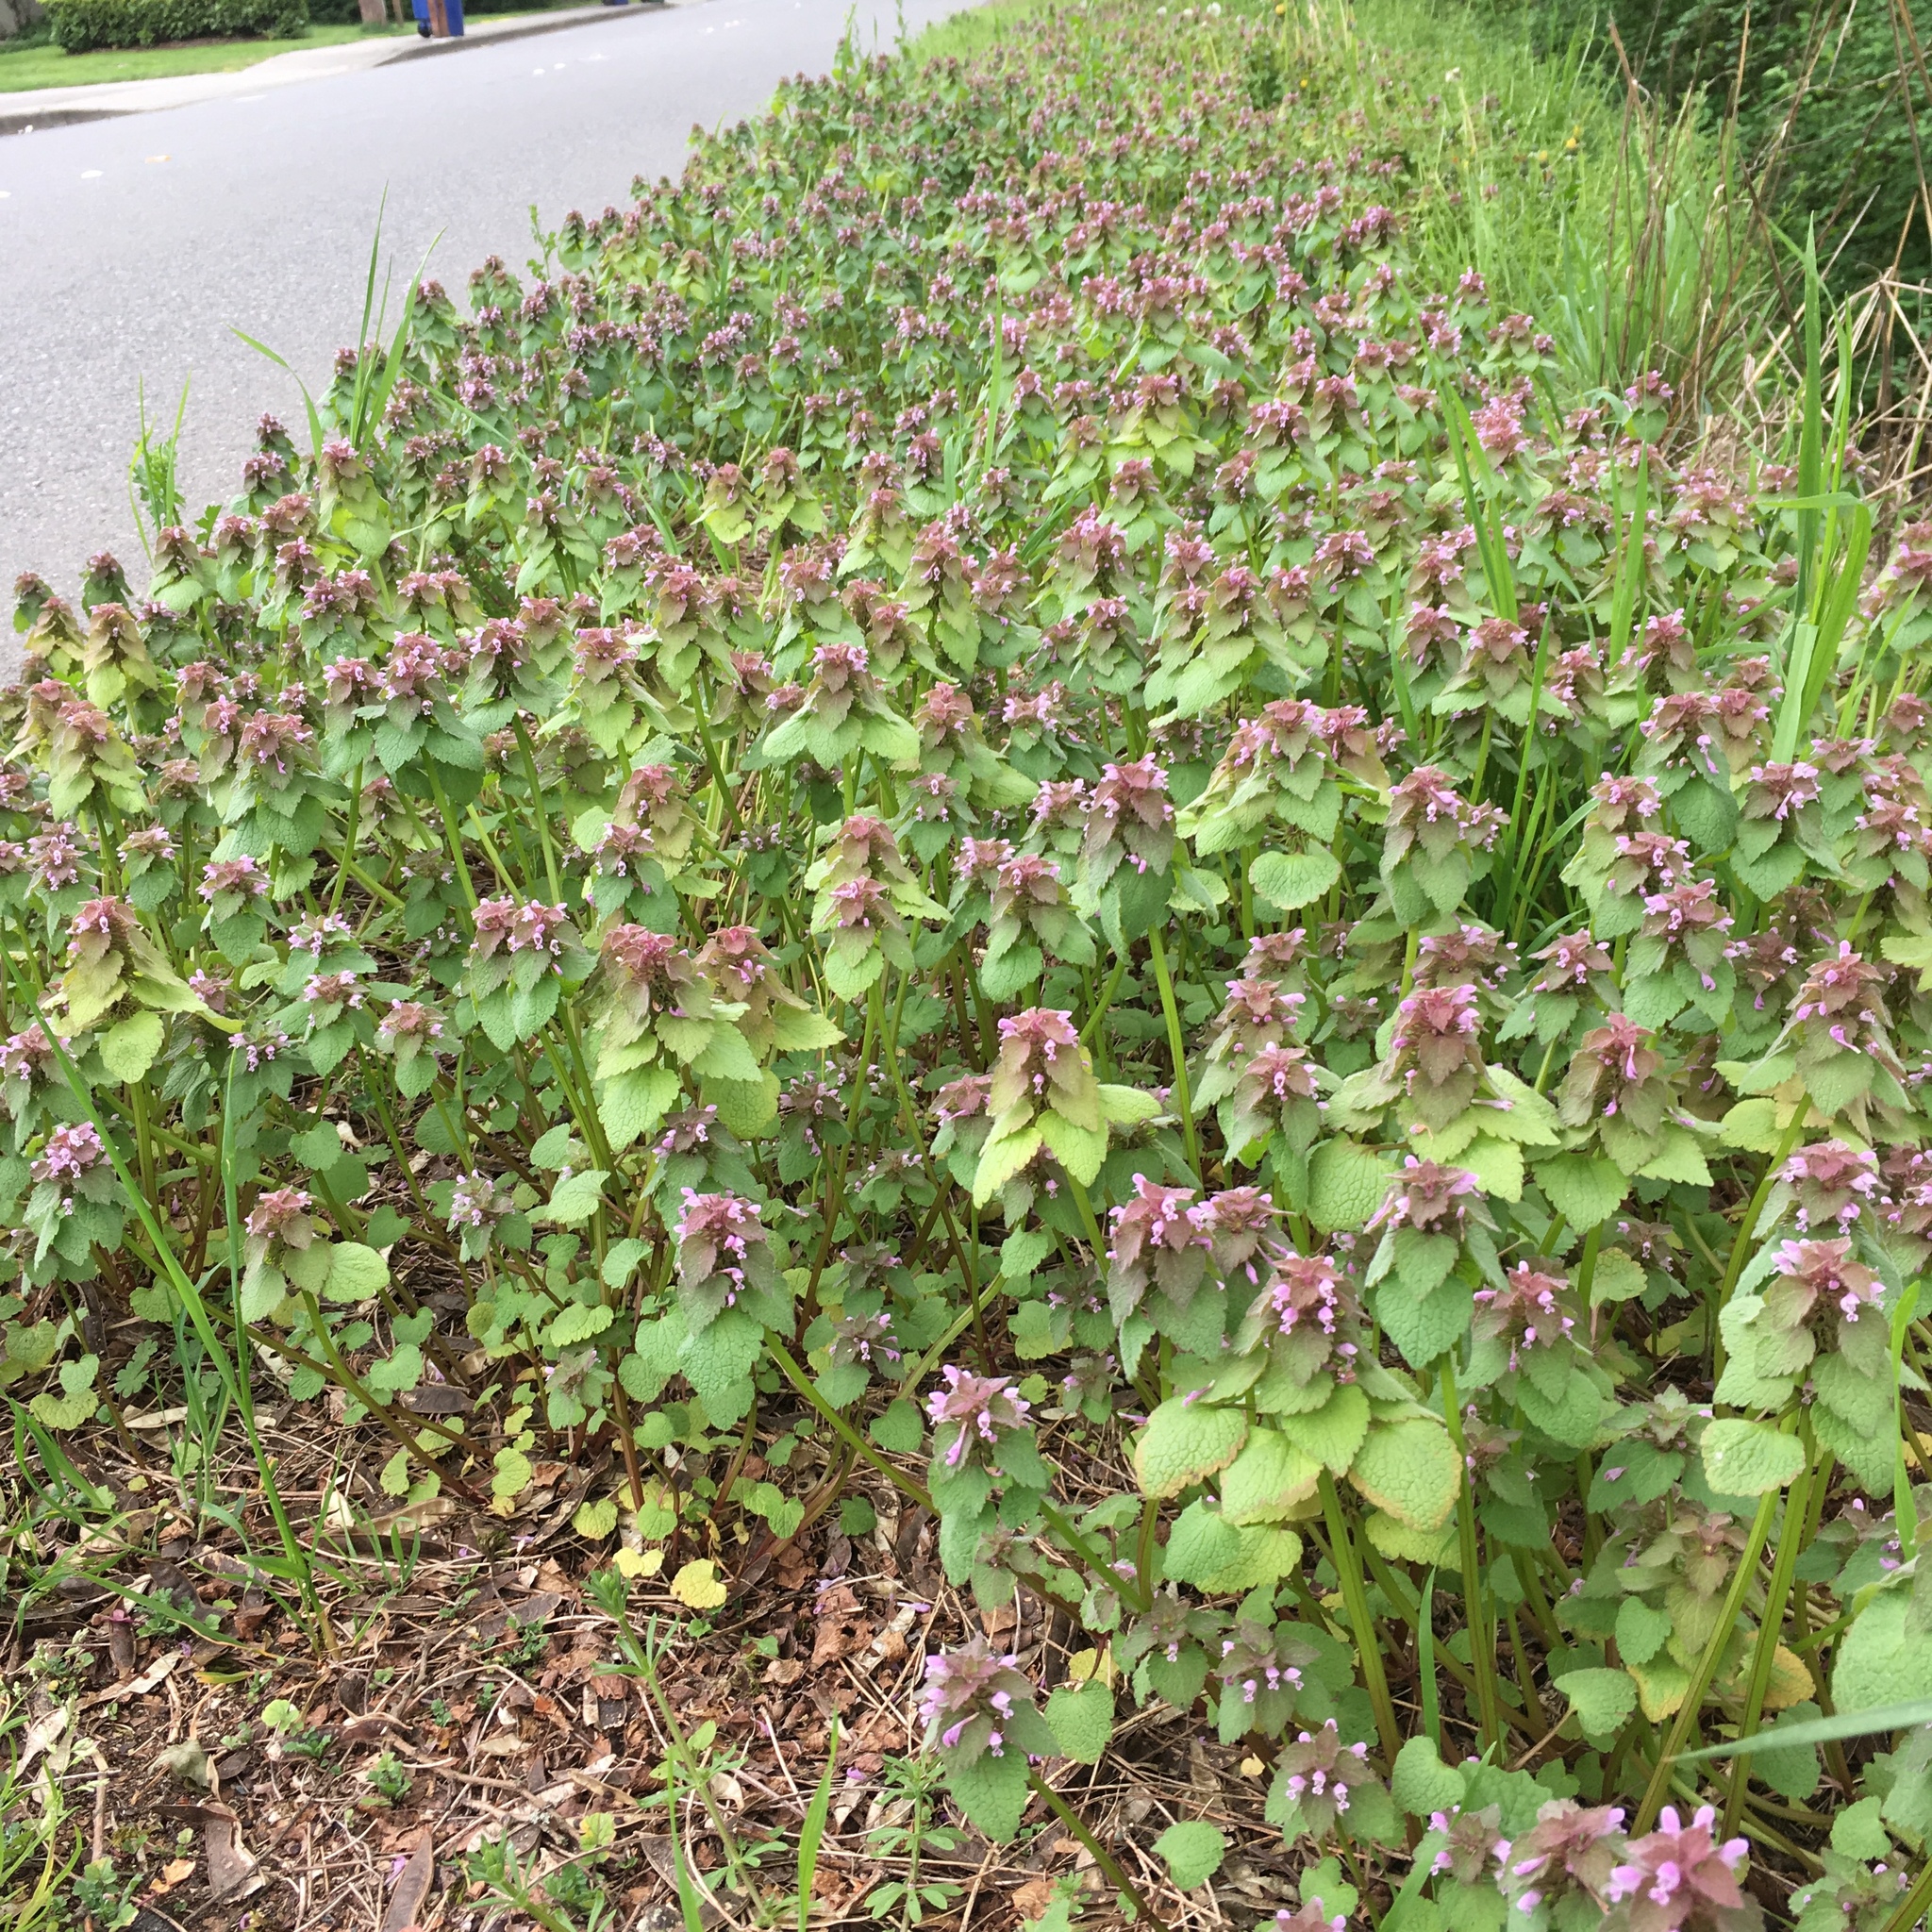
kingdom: Plantae
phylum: Tracheophyta
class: Magnoliopsida
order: Lamiales
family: Lamiaceae
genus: Lamium
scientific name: Lamium purpureum
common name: Red dead-nettle
